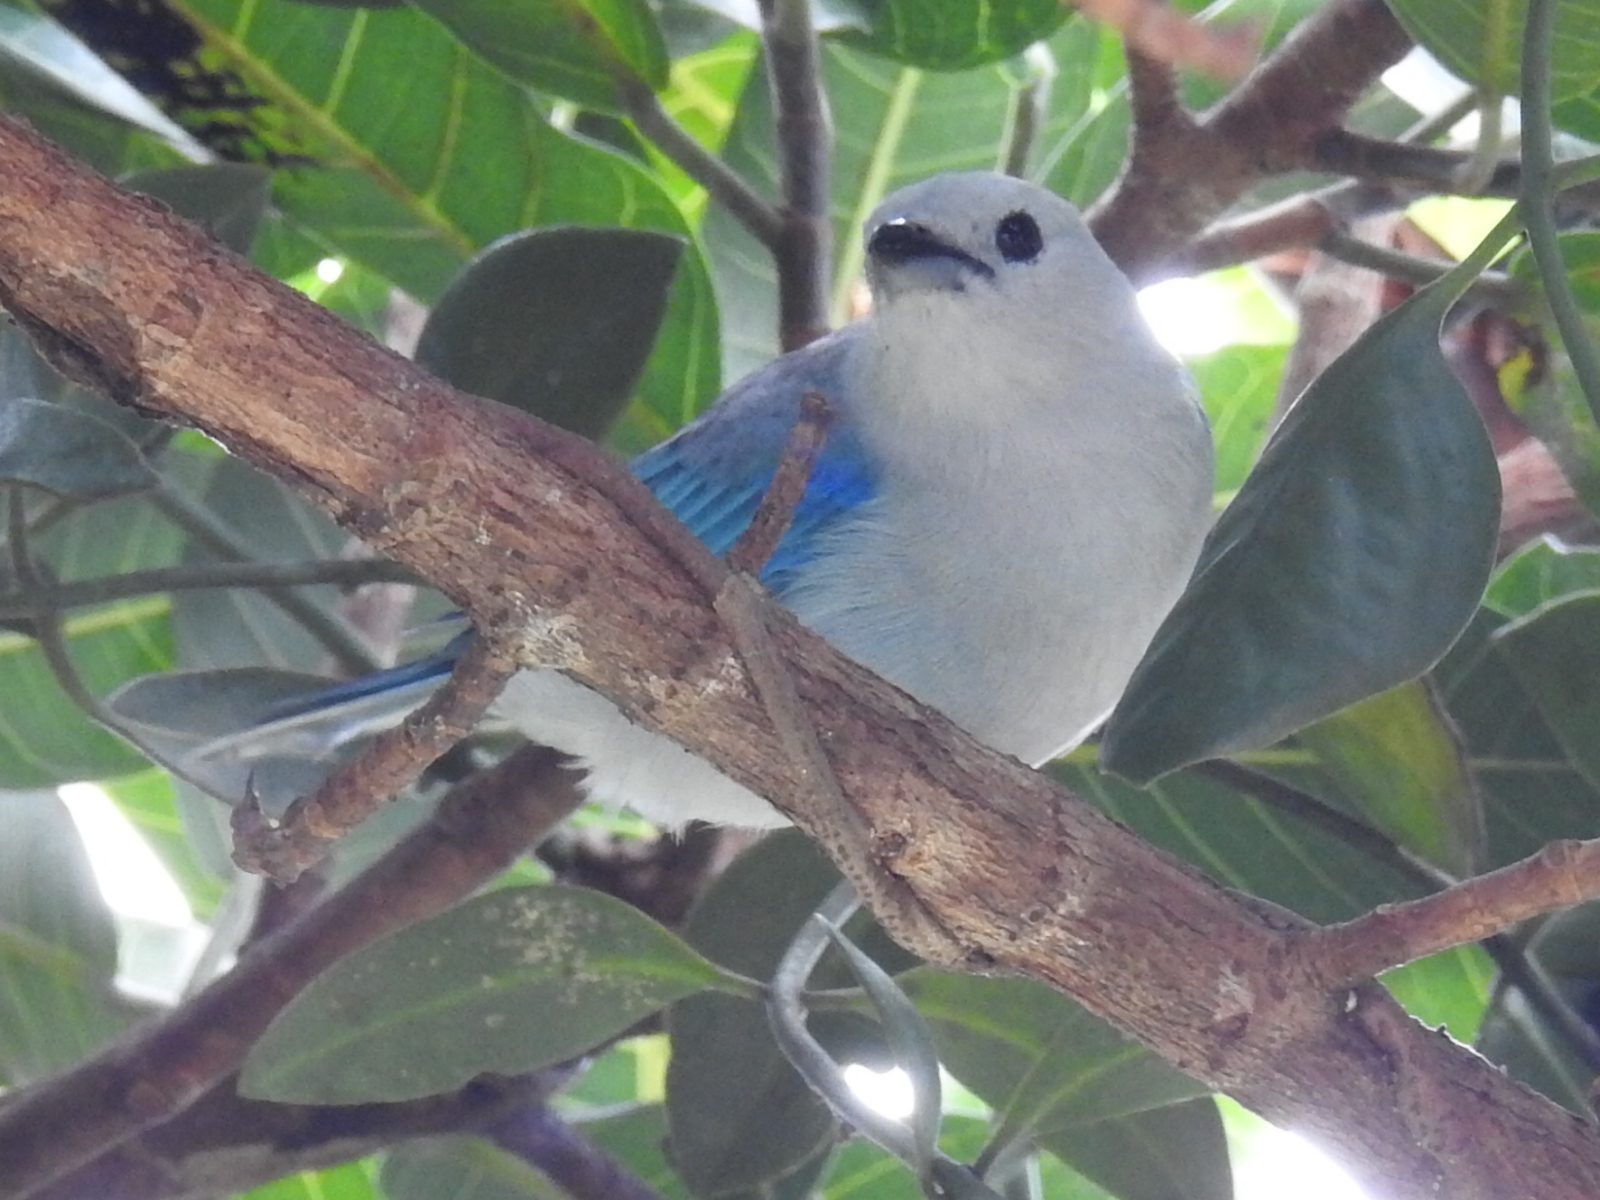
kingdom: Animalia
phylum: Chordata
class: Aves
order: Passeriformes
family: Thraupidae
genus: Thraupis
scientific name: Thraupis episcopus
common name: Blue-grey tanager
